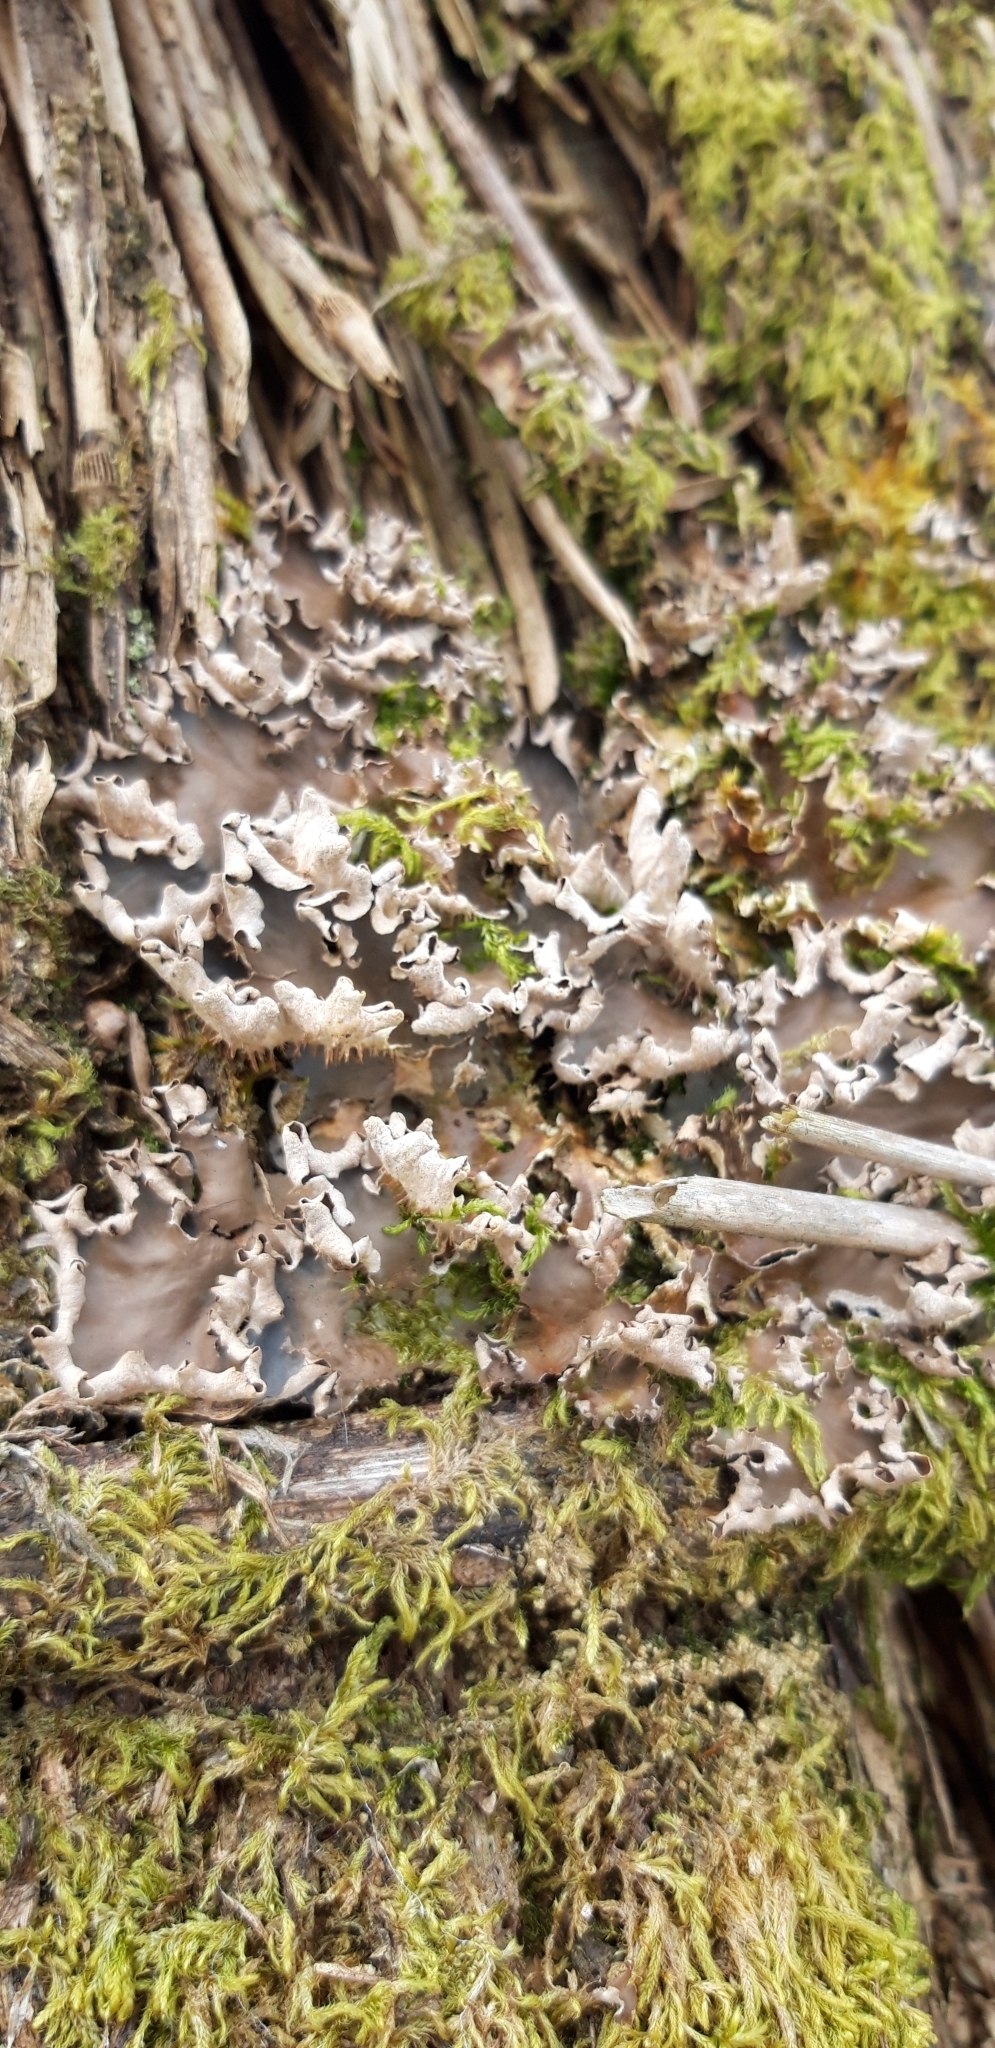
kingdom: Fungi
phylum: Ascomycota
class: Lecanoromycetes
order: Peltigerales
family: Peltigeraceae
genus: Peltigera
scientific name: Peltigera
